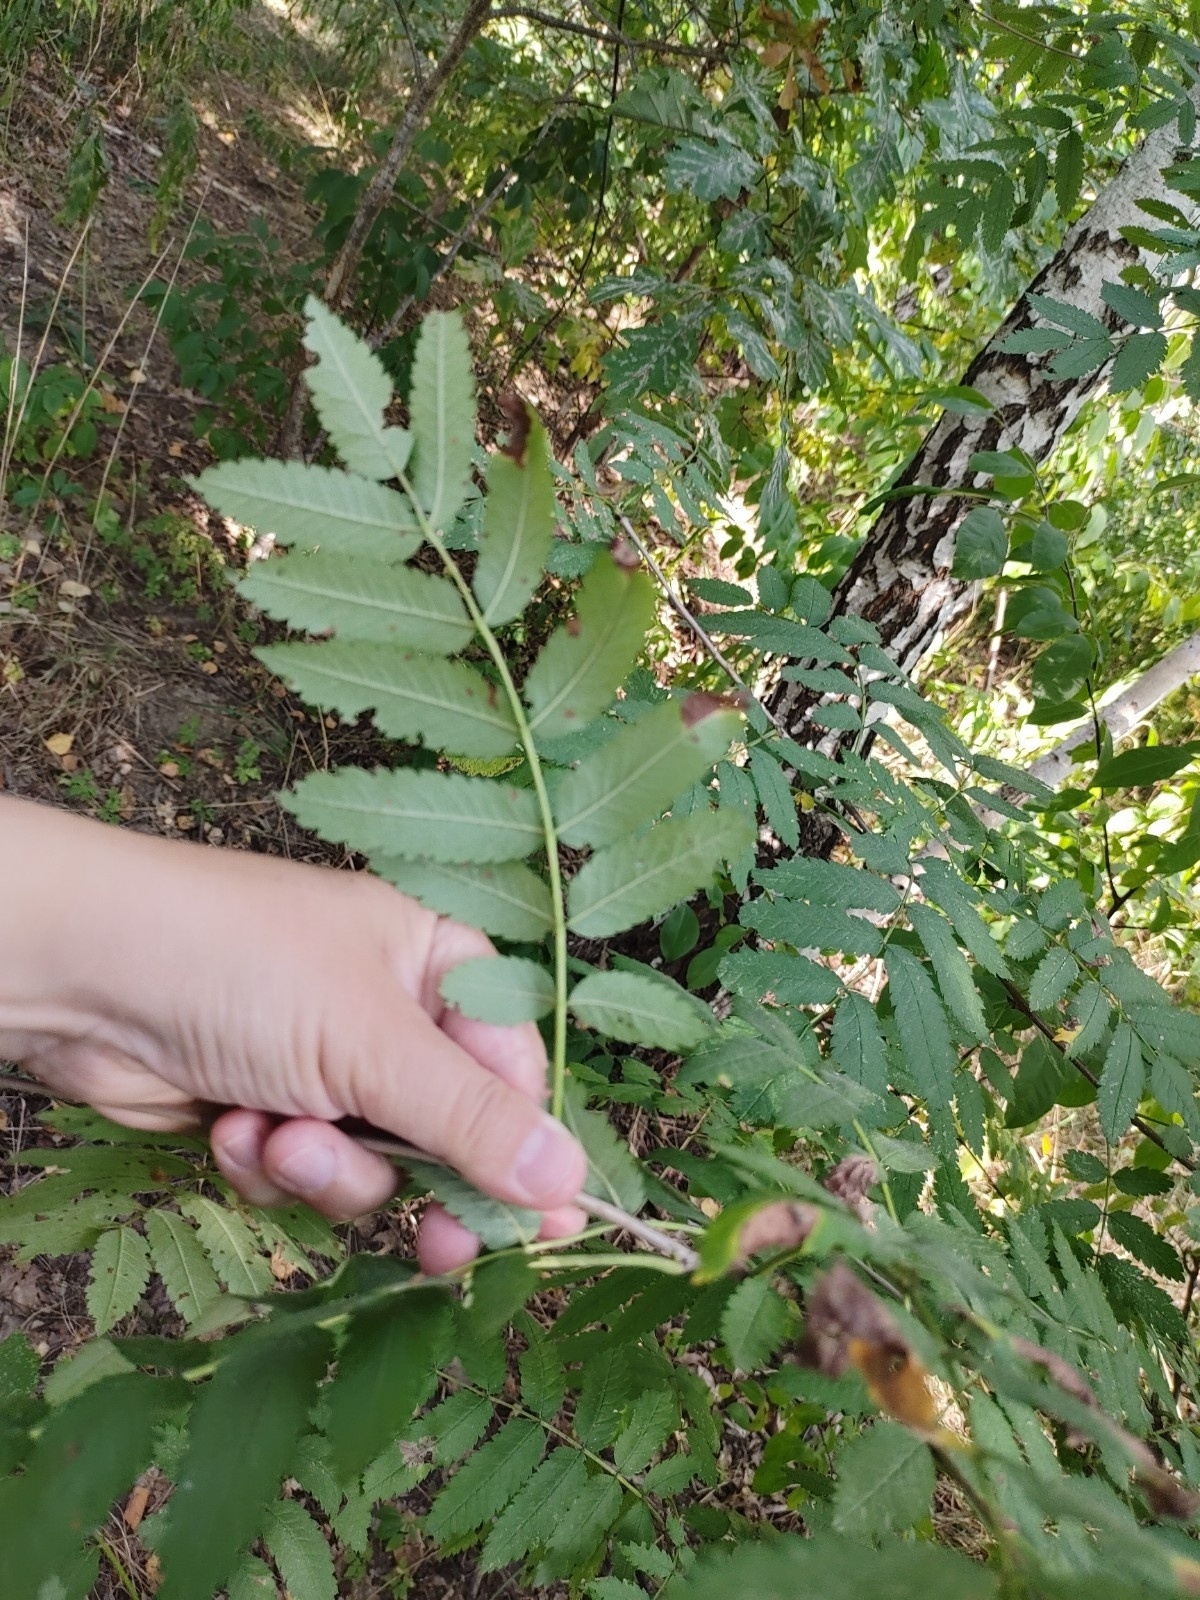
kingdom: Plantae
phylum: Tracheophyta
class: Magnoliopsida
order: Rosales
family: Rosaceae
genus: Sorbus
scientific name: Sorbus aucuparia
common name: Rowan
